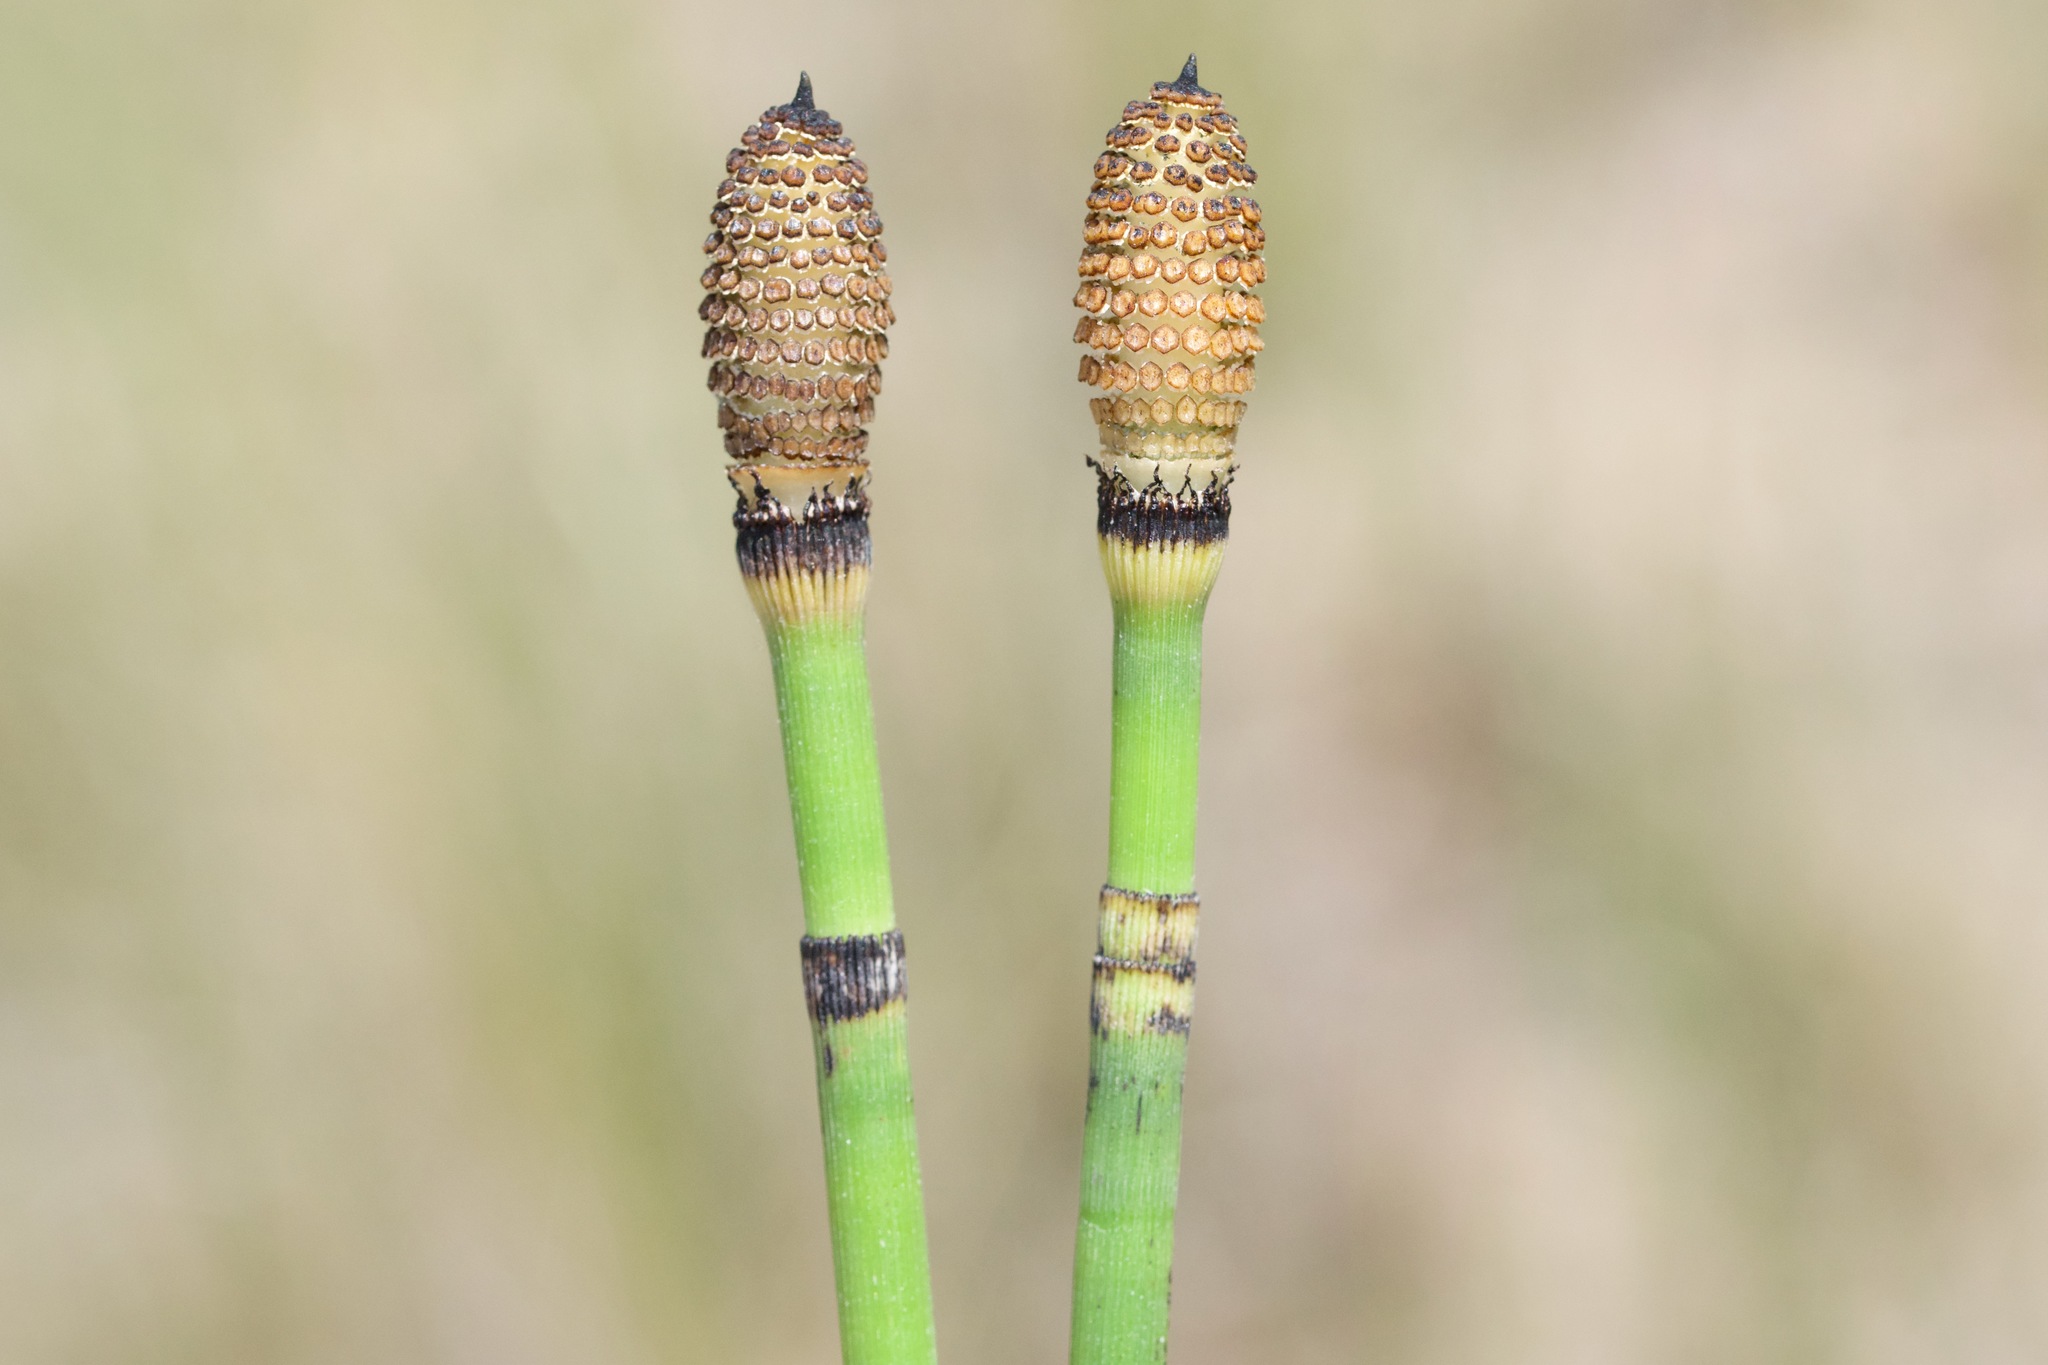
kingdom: Plantae
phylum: Tracheophyta
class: Polypodiopsida
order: Equisetales
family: Equisetaceae
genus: Equisetum
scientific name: Equisetum ferrissii
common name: Ferriss' horsetail
